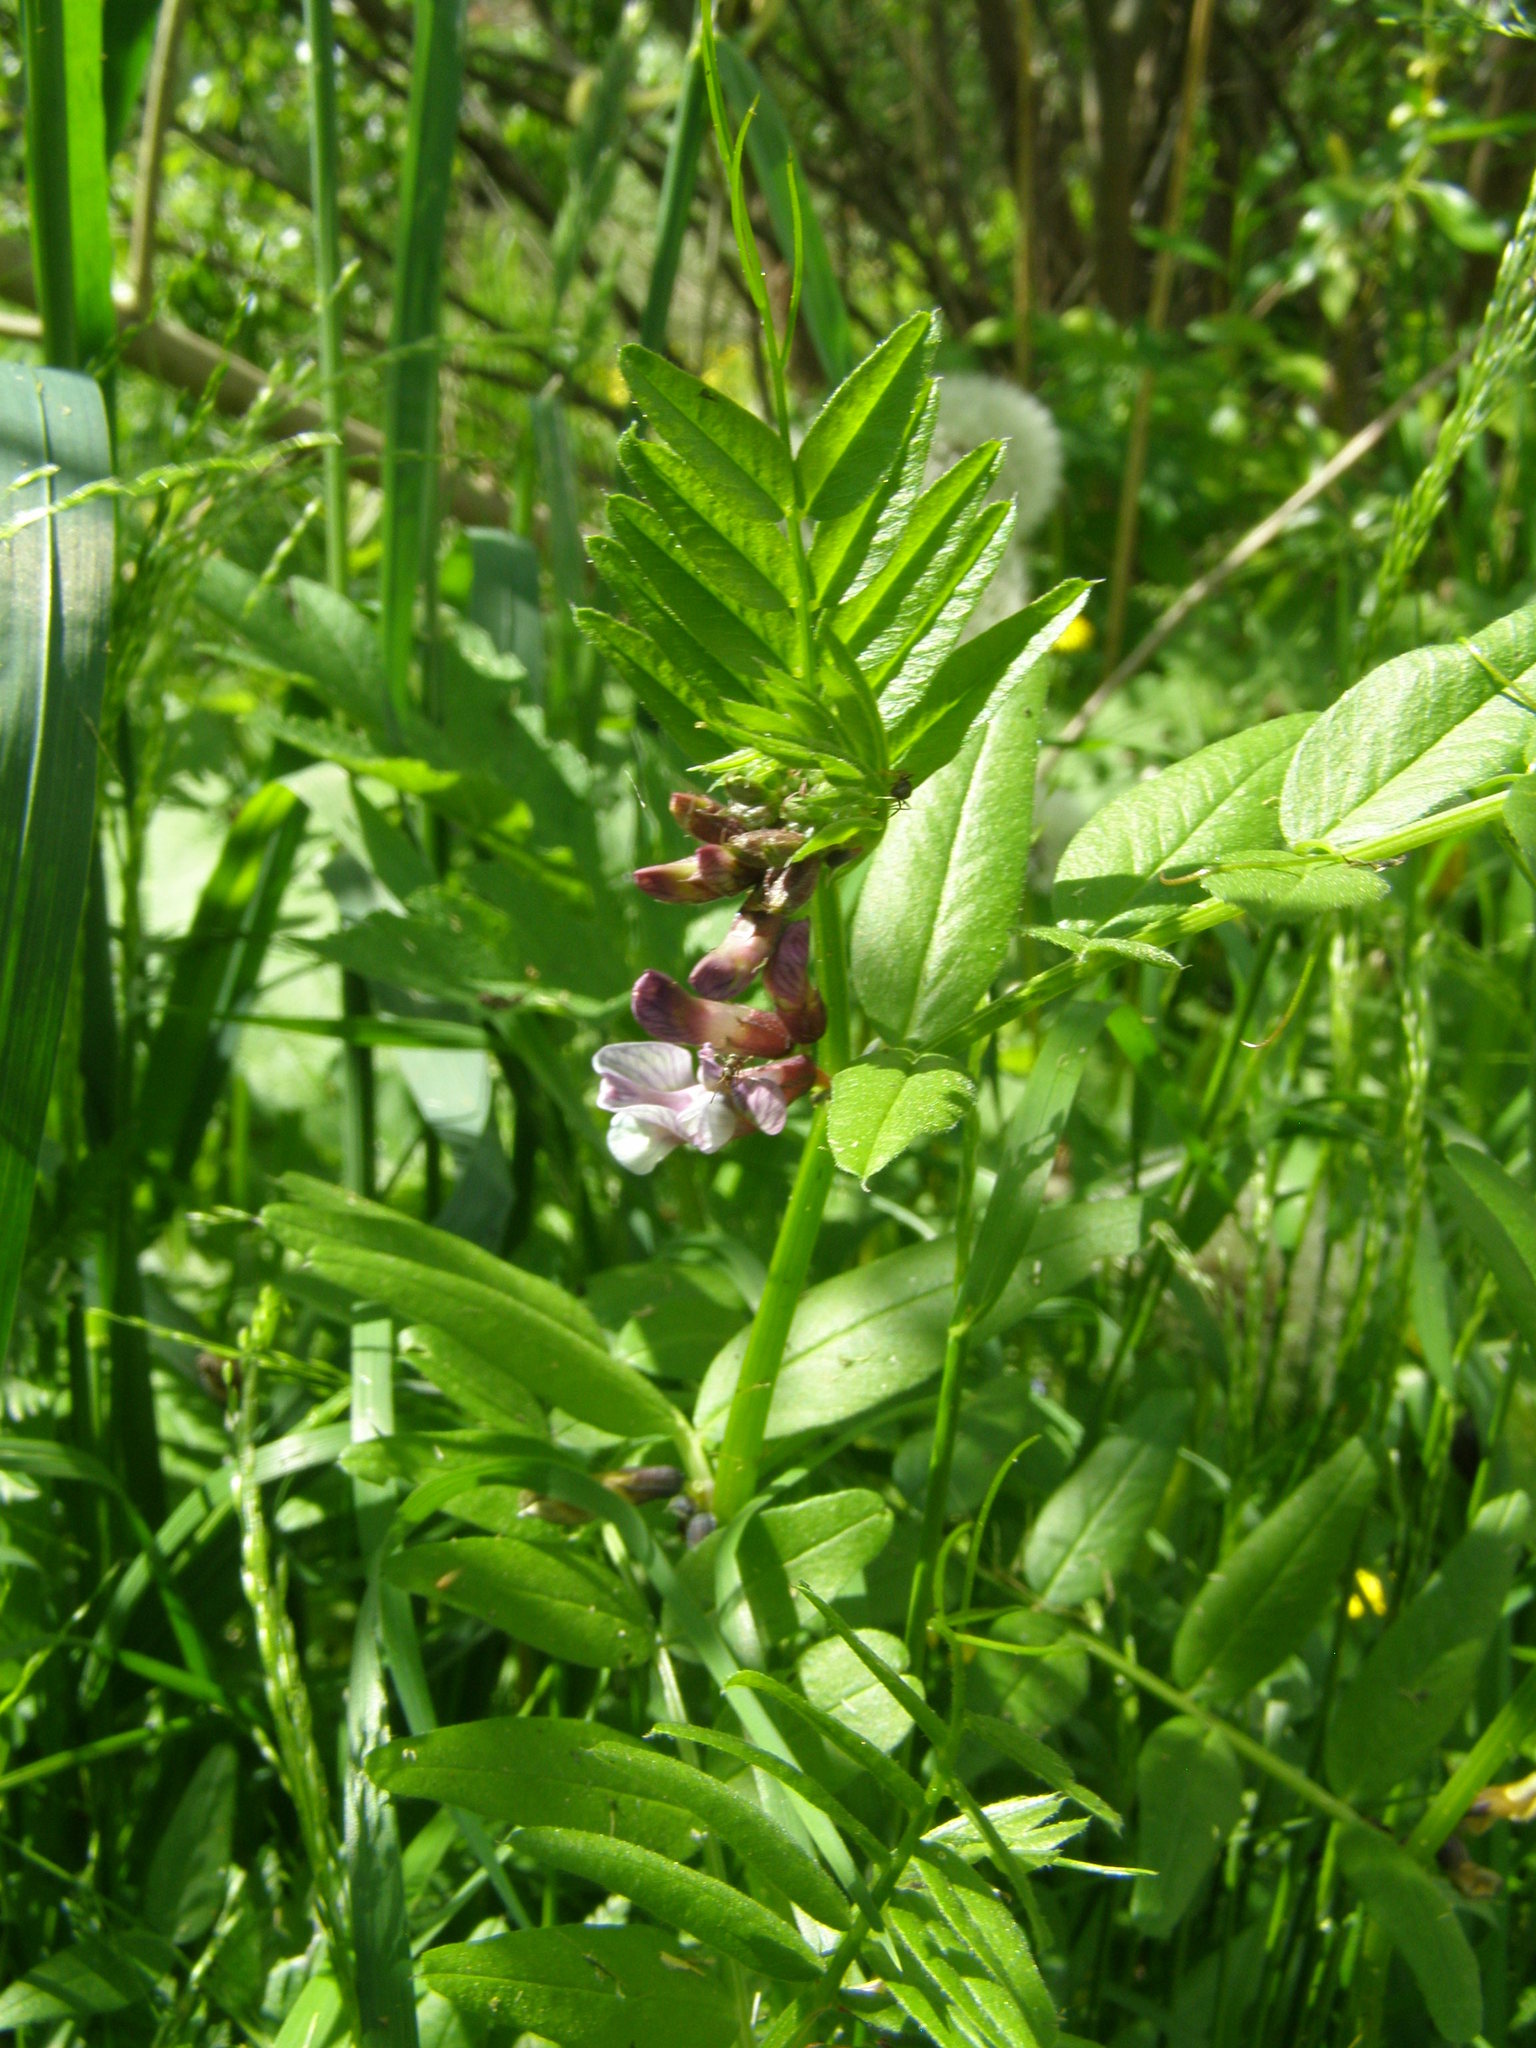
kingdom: Plantae
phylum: Tracheophyta
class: Magnoliopsida
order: Fabales
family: Fabaceae
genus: Vicia
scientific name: Vicia sepium
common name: Bush vetch
